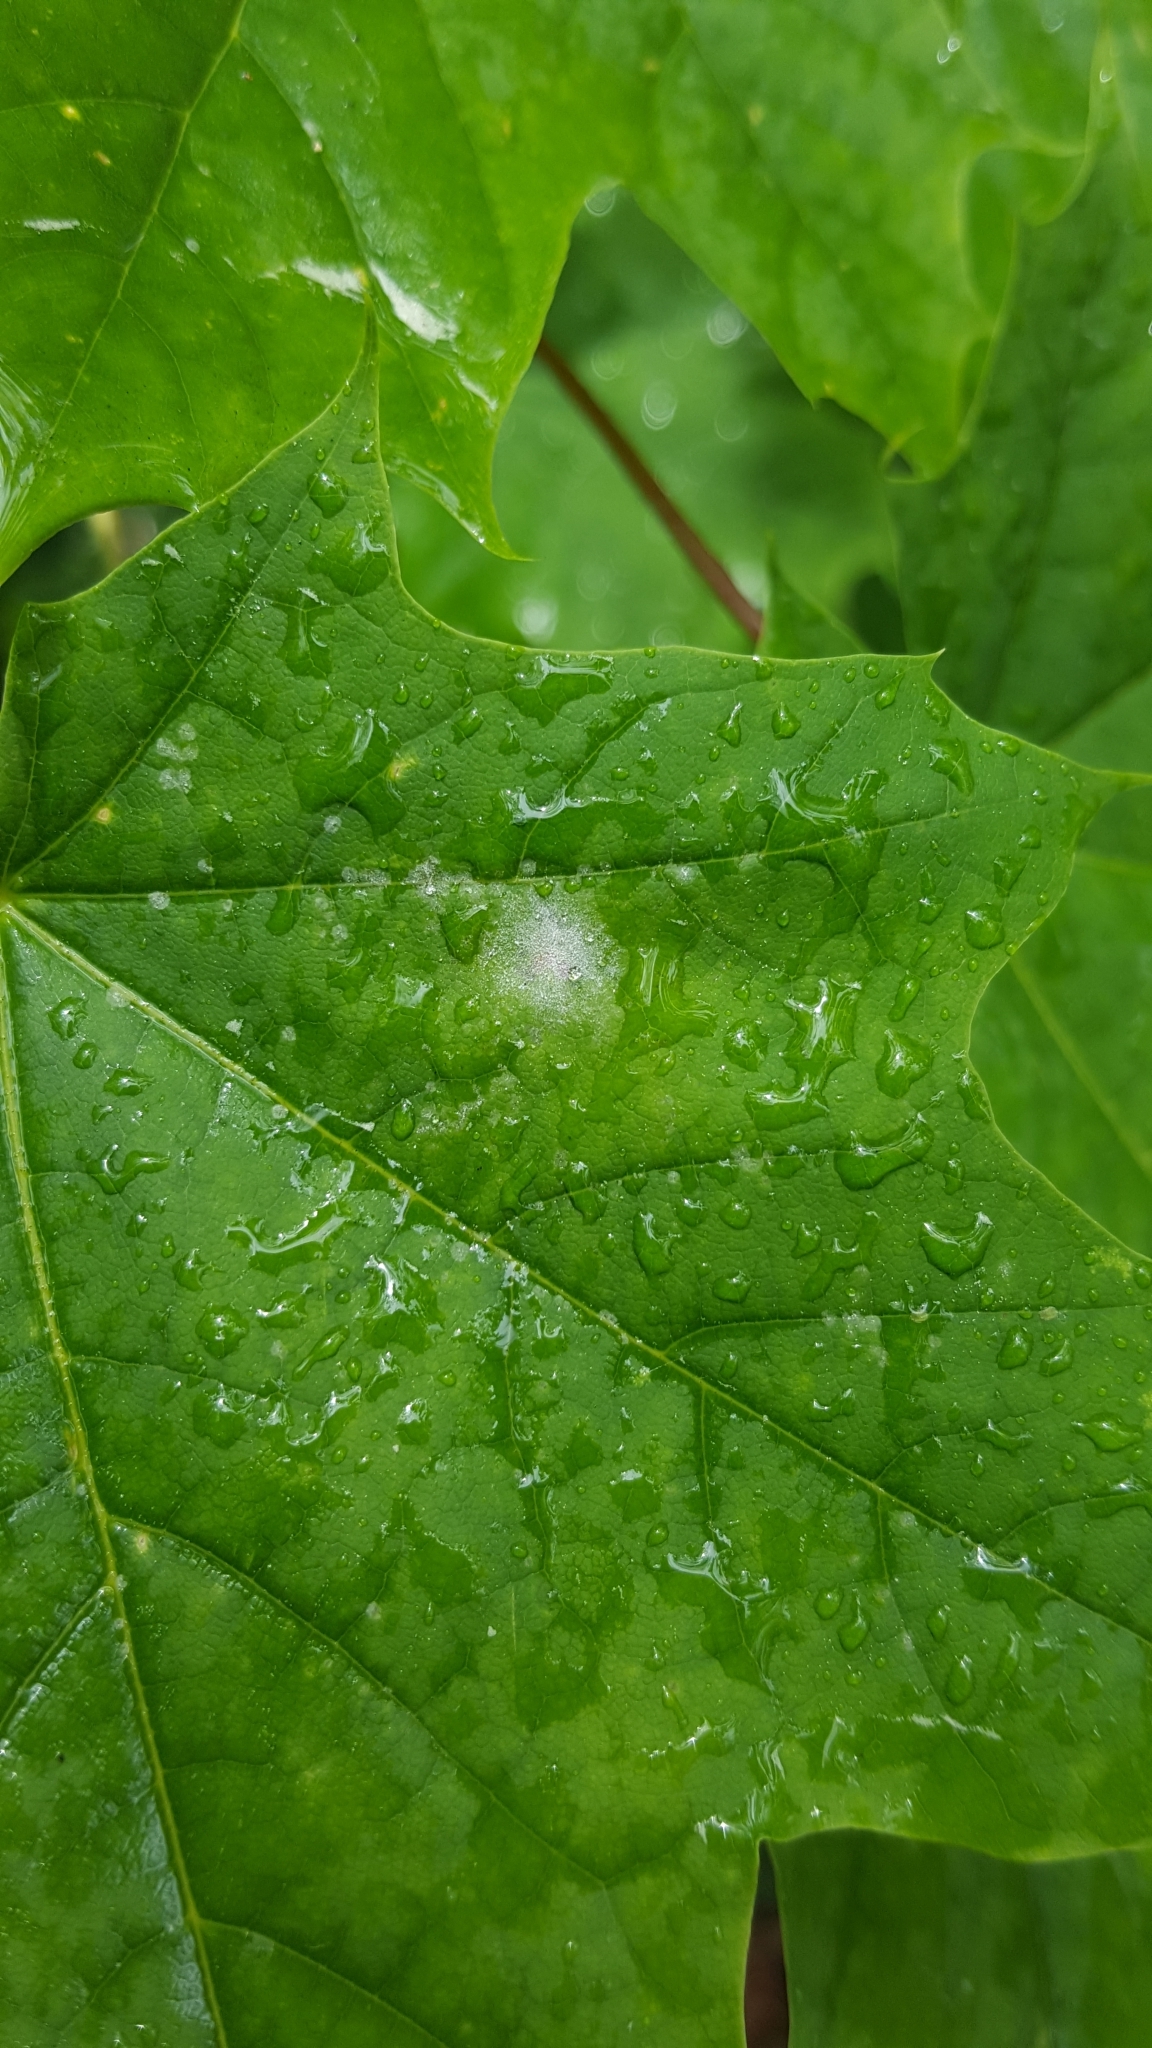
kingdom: Fungi
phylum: Ascomycota
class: Leotiomycetes
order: Helotiales
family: Erysiphaceae
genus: Sawadaea
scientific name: Sawadaea tulasnei
